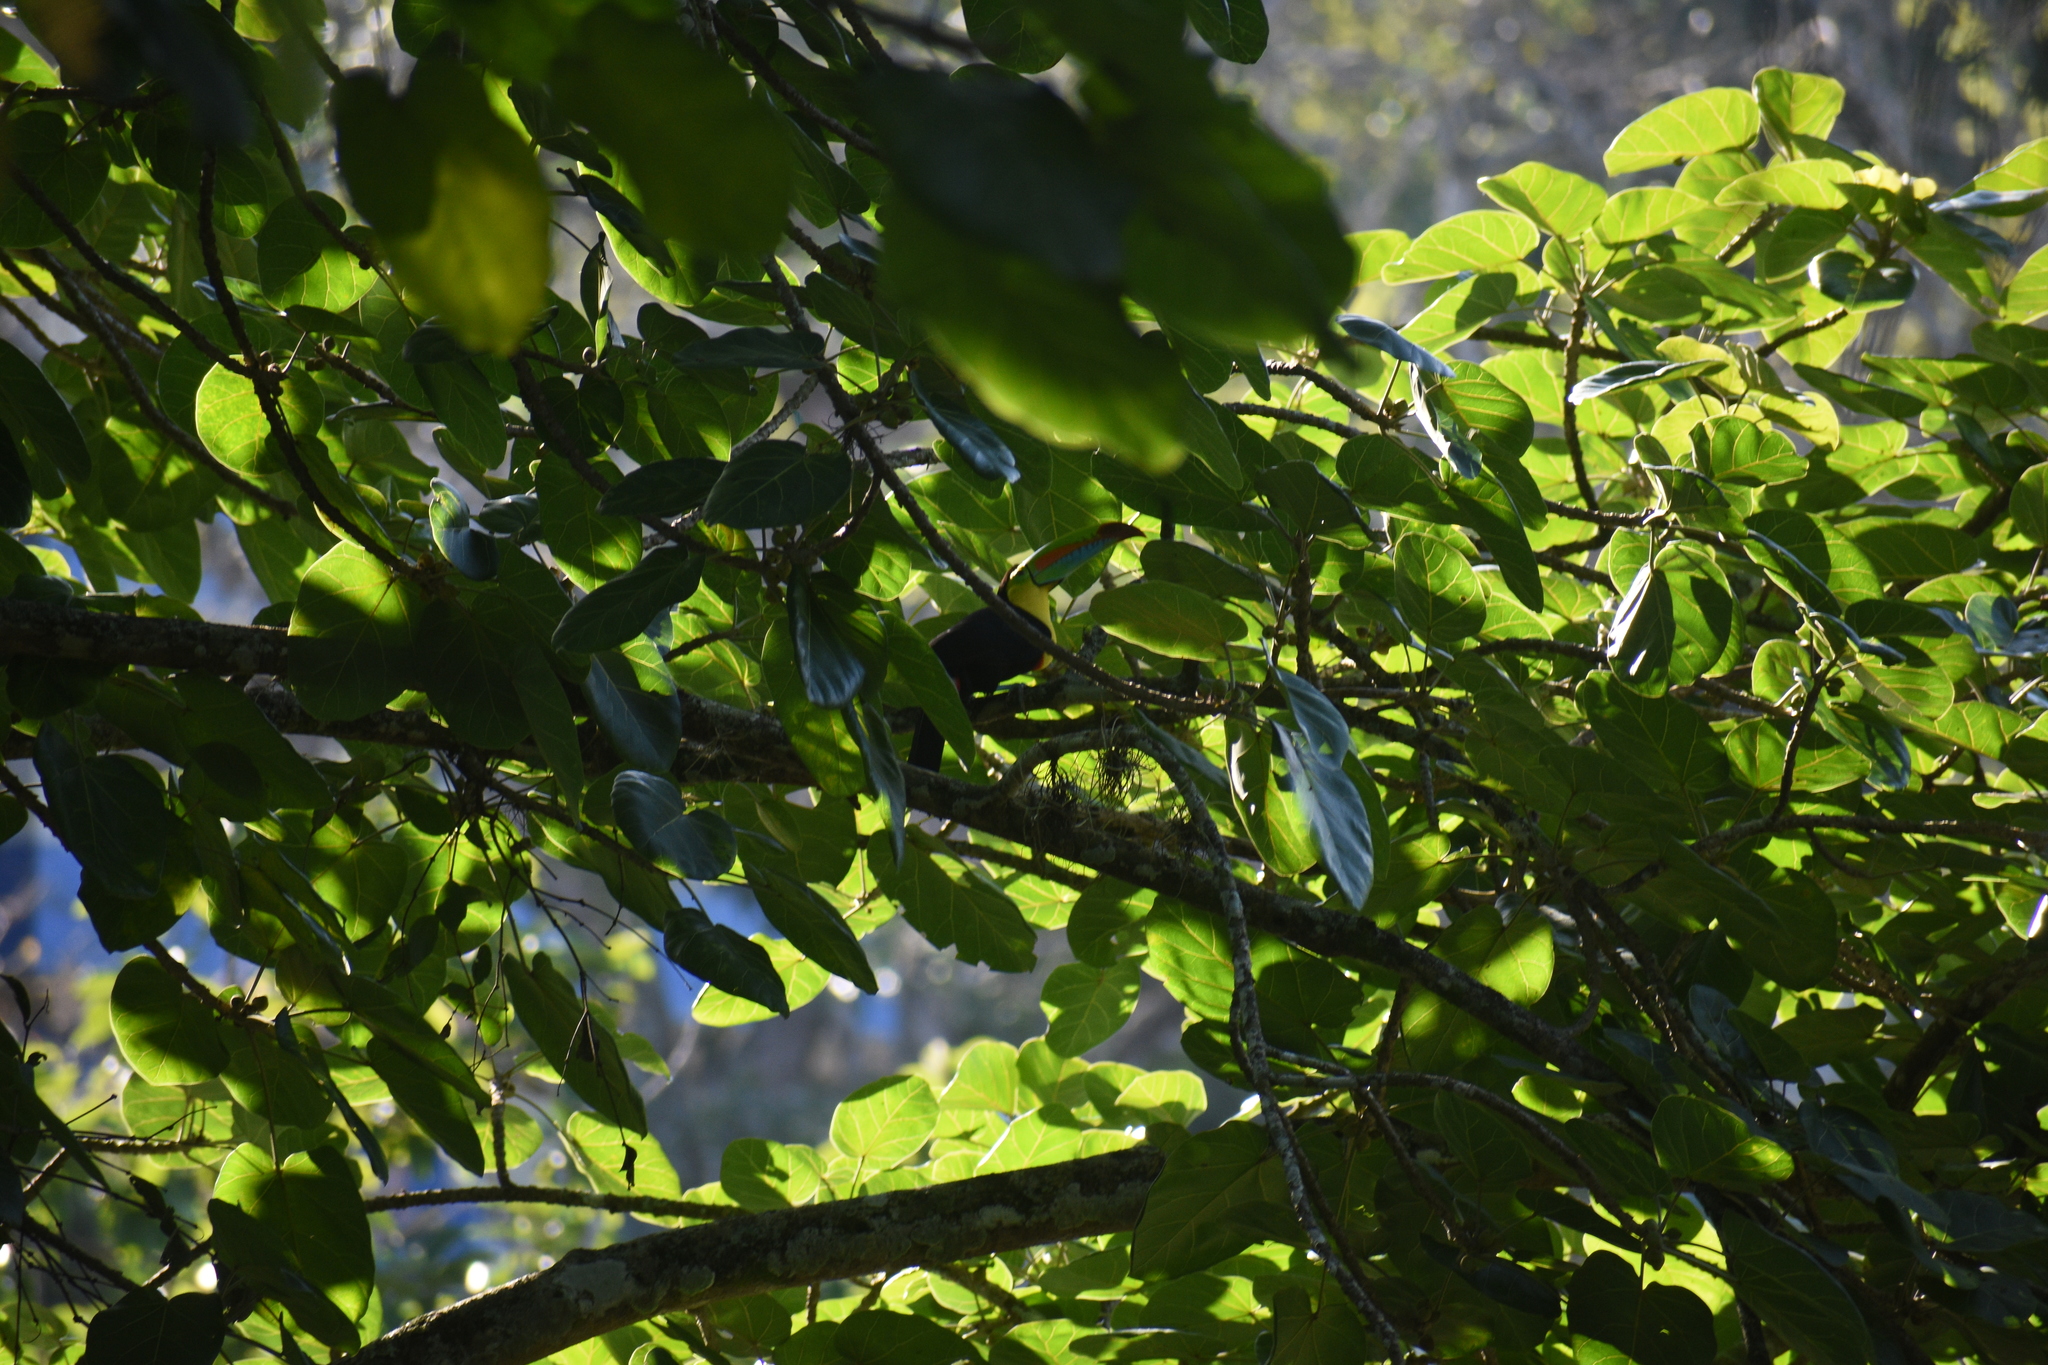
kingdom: Animalia
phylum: Chordata
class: Aves
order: Piciformes
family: Ramphastidae
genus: Ramphastos
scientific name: Ramphastos sulfuratus
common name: Keel-billed toucan
